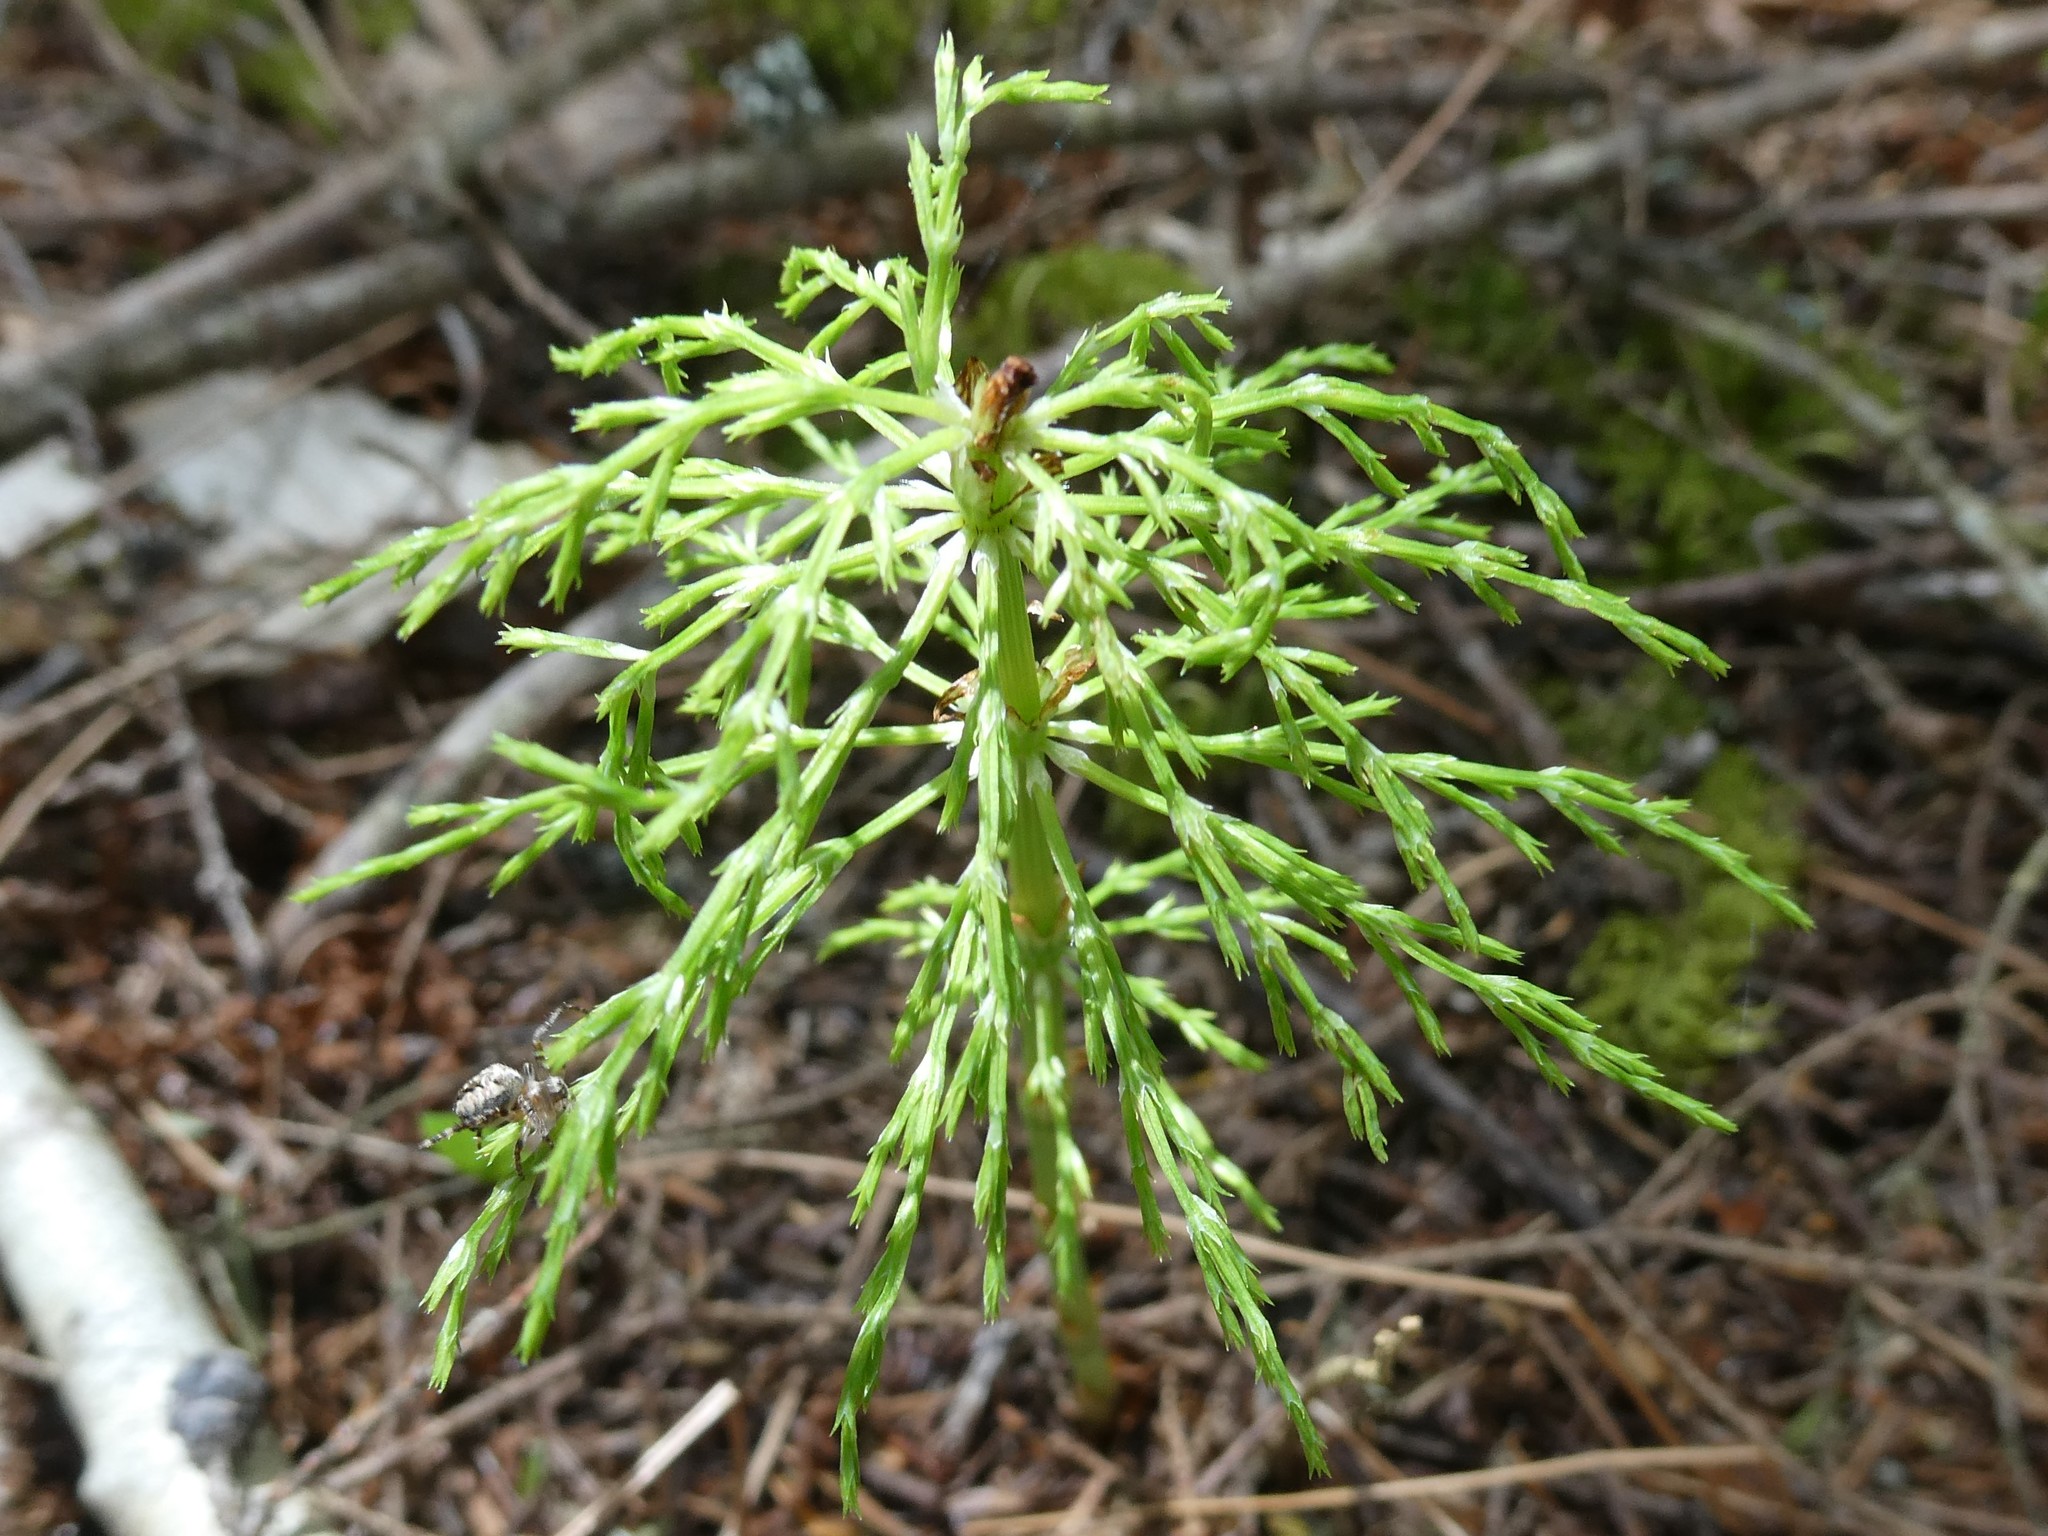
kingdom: Plantae
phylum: Tracheophyta
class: Polypodiopsida
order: Equisetales
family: Equisetaceae
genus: Equisetum
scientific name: Equisetum sylvaticum
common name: Wood horsetail
